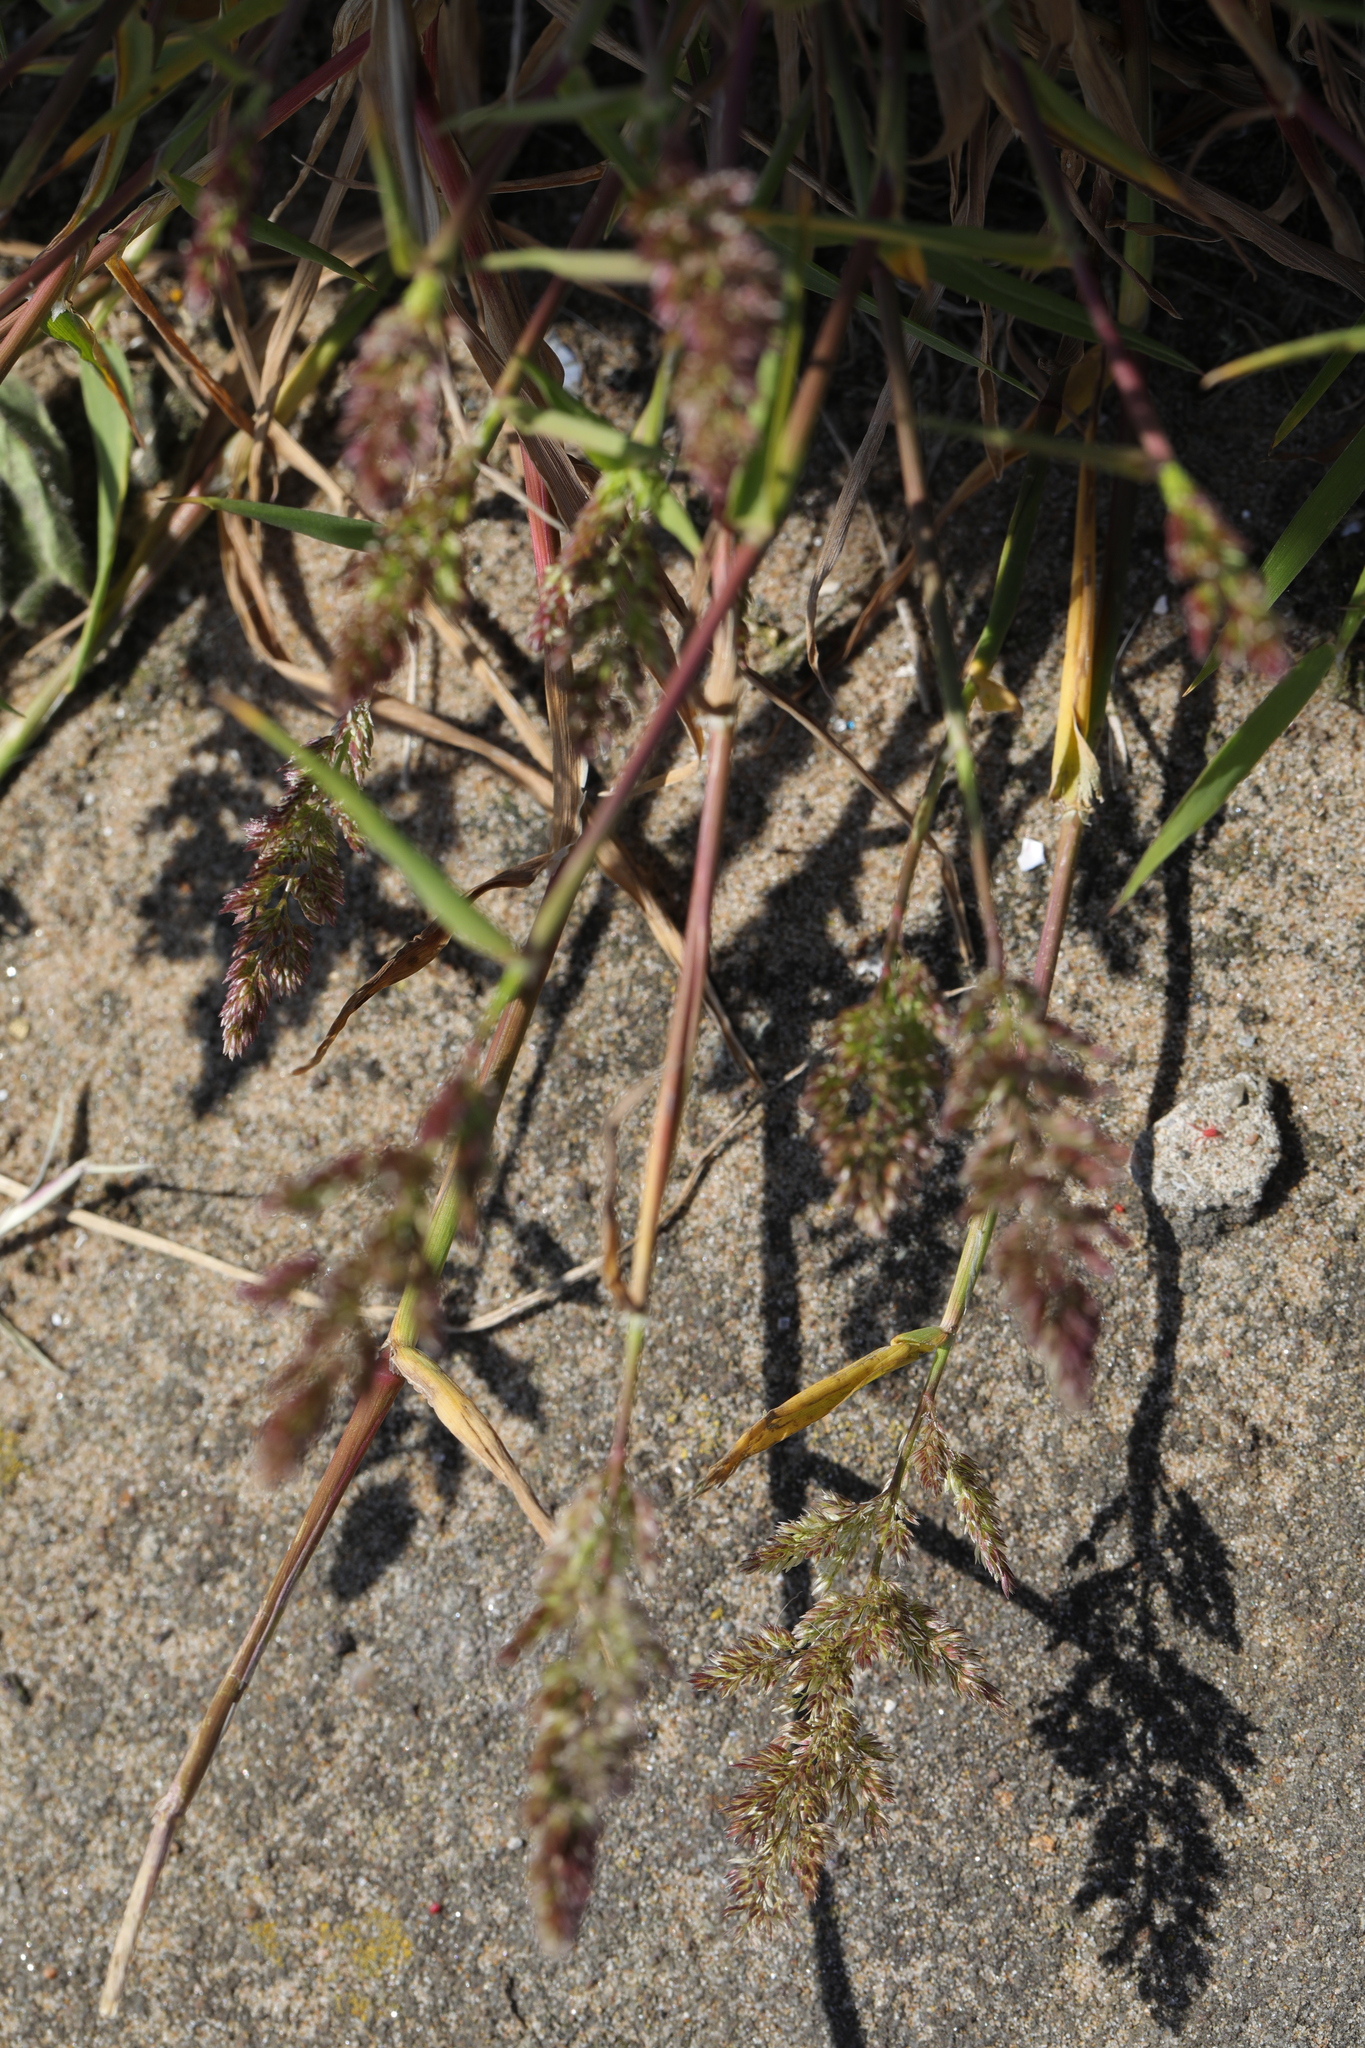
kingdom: Plantae
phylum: Tracheophyta
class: Liliopsida
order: Poales
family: Poaceae
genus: Polypogon
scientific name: Polypogon viridis
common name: Water bent
